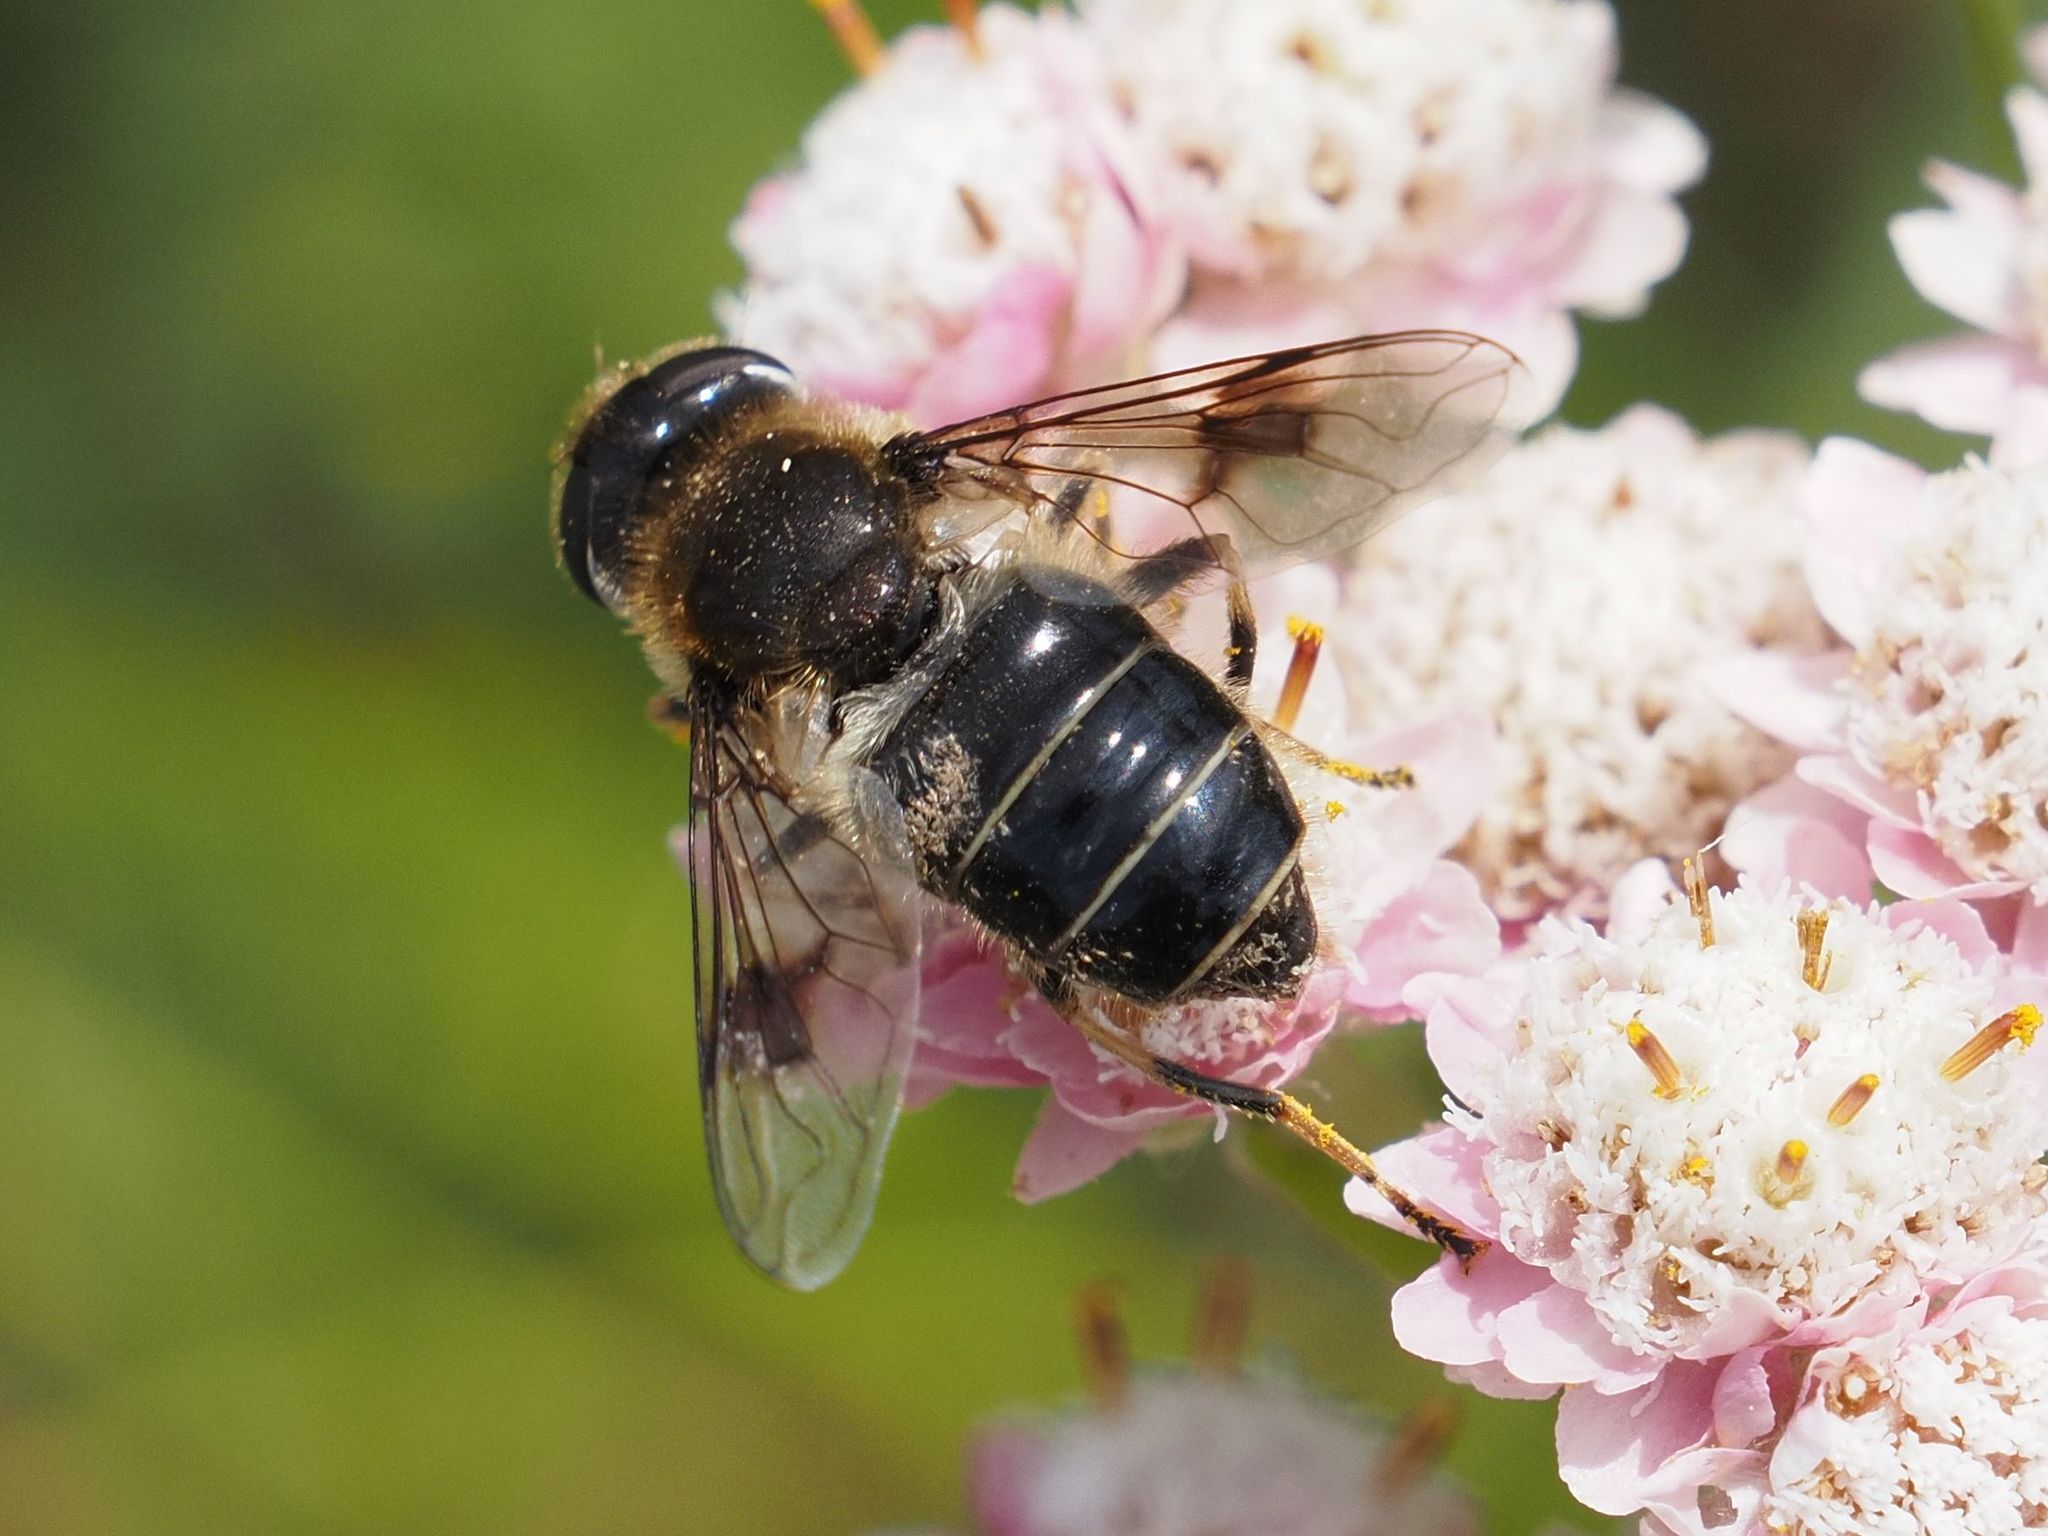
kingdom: Animalia
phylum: Arthropoda
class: Insecta
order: Diptera
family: Syrphidae
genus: Eristalis
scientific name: Eristalis rupium
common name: Hover fly
